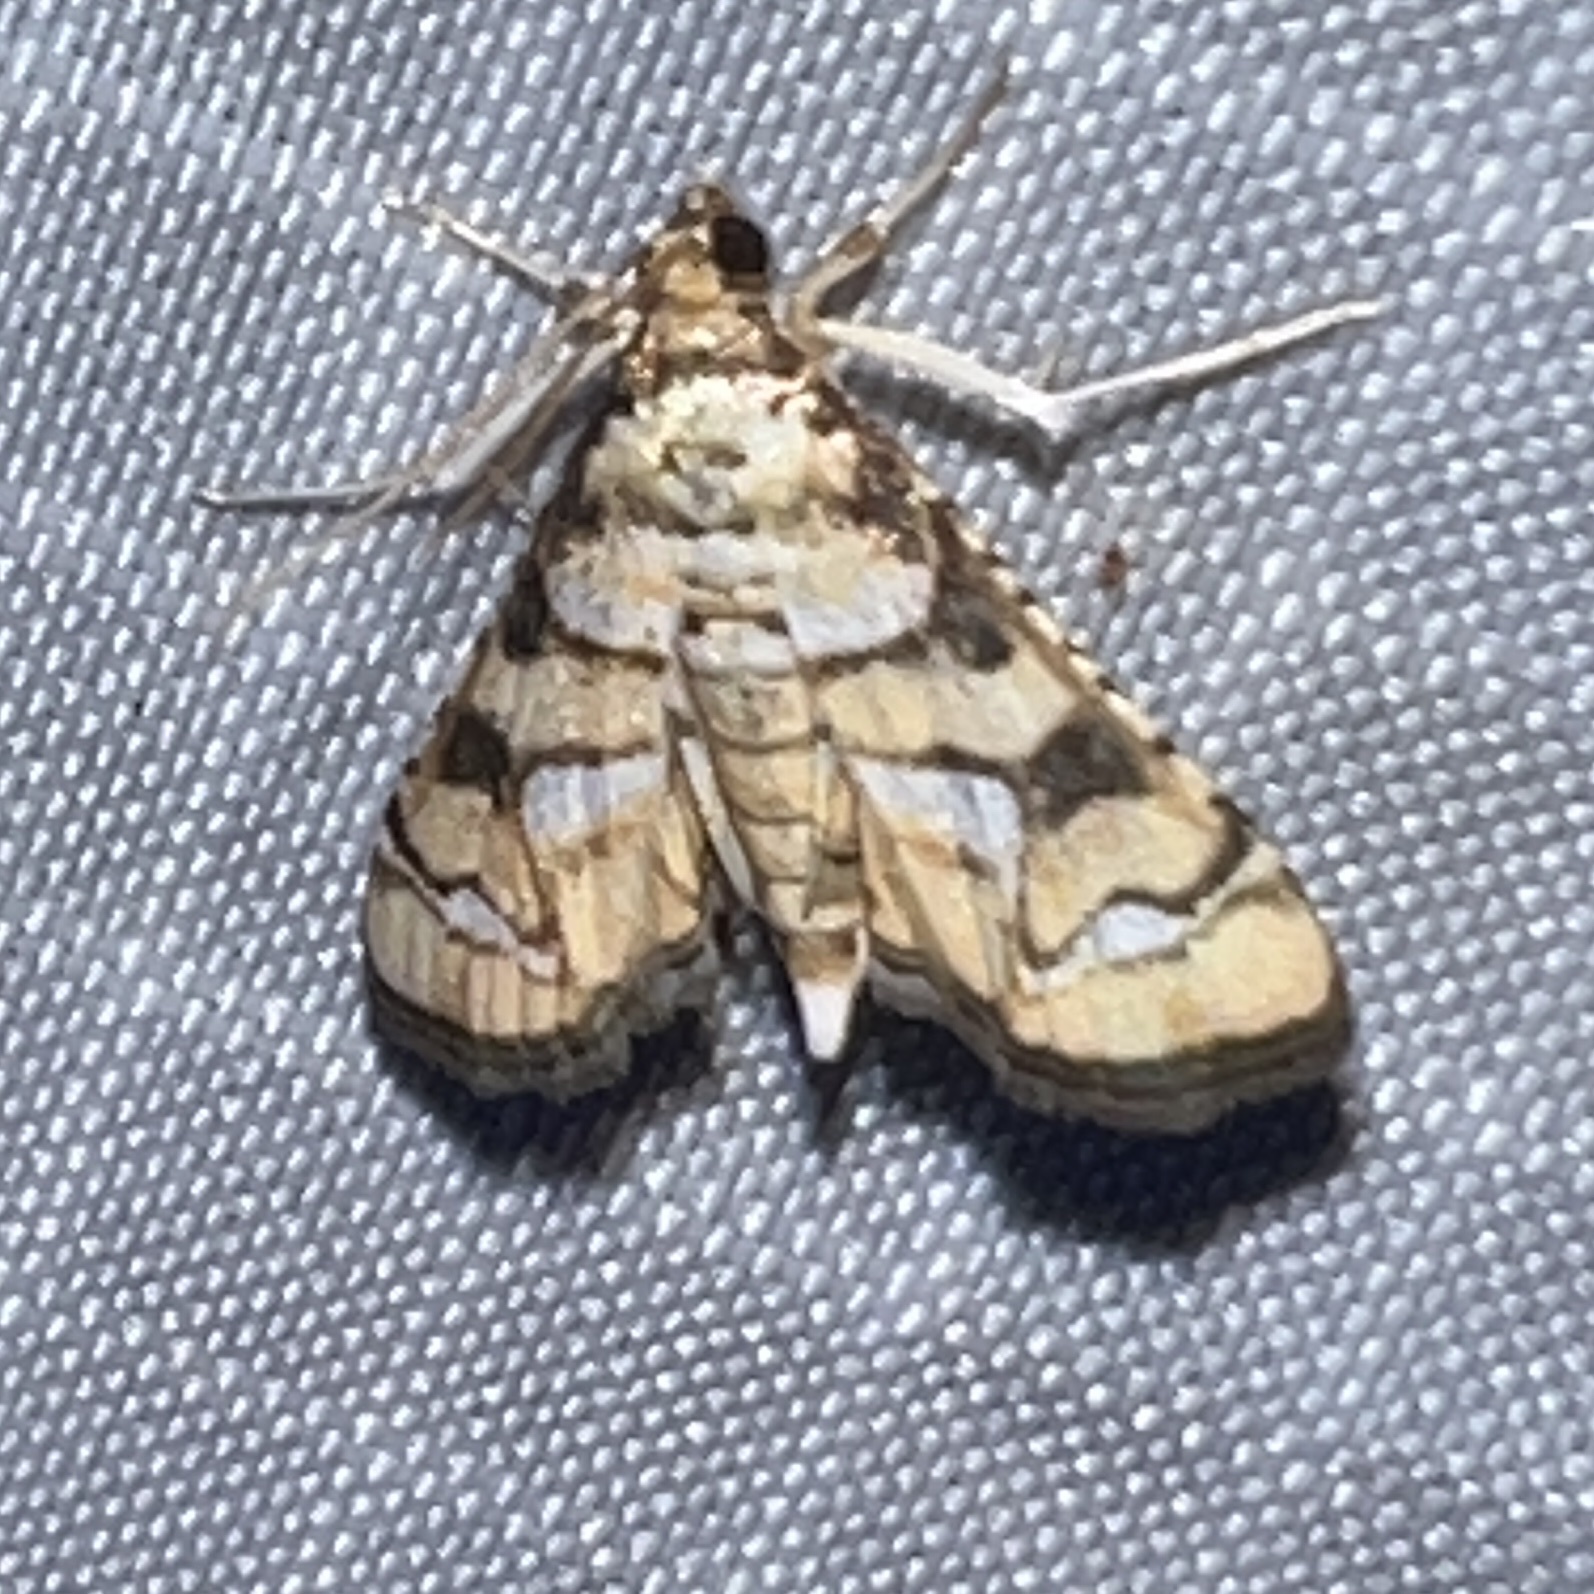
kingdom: Animalia
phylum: Arthropoda
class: Insecta
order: Lepidoptera
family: Crambidae
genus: Hileithia
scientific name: Hileithia magualis
